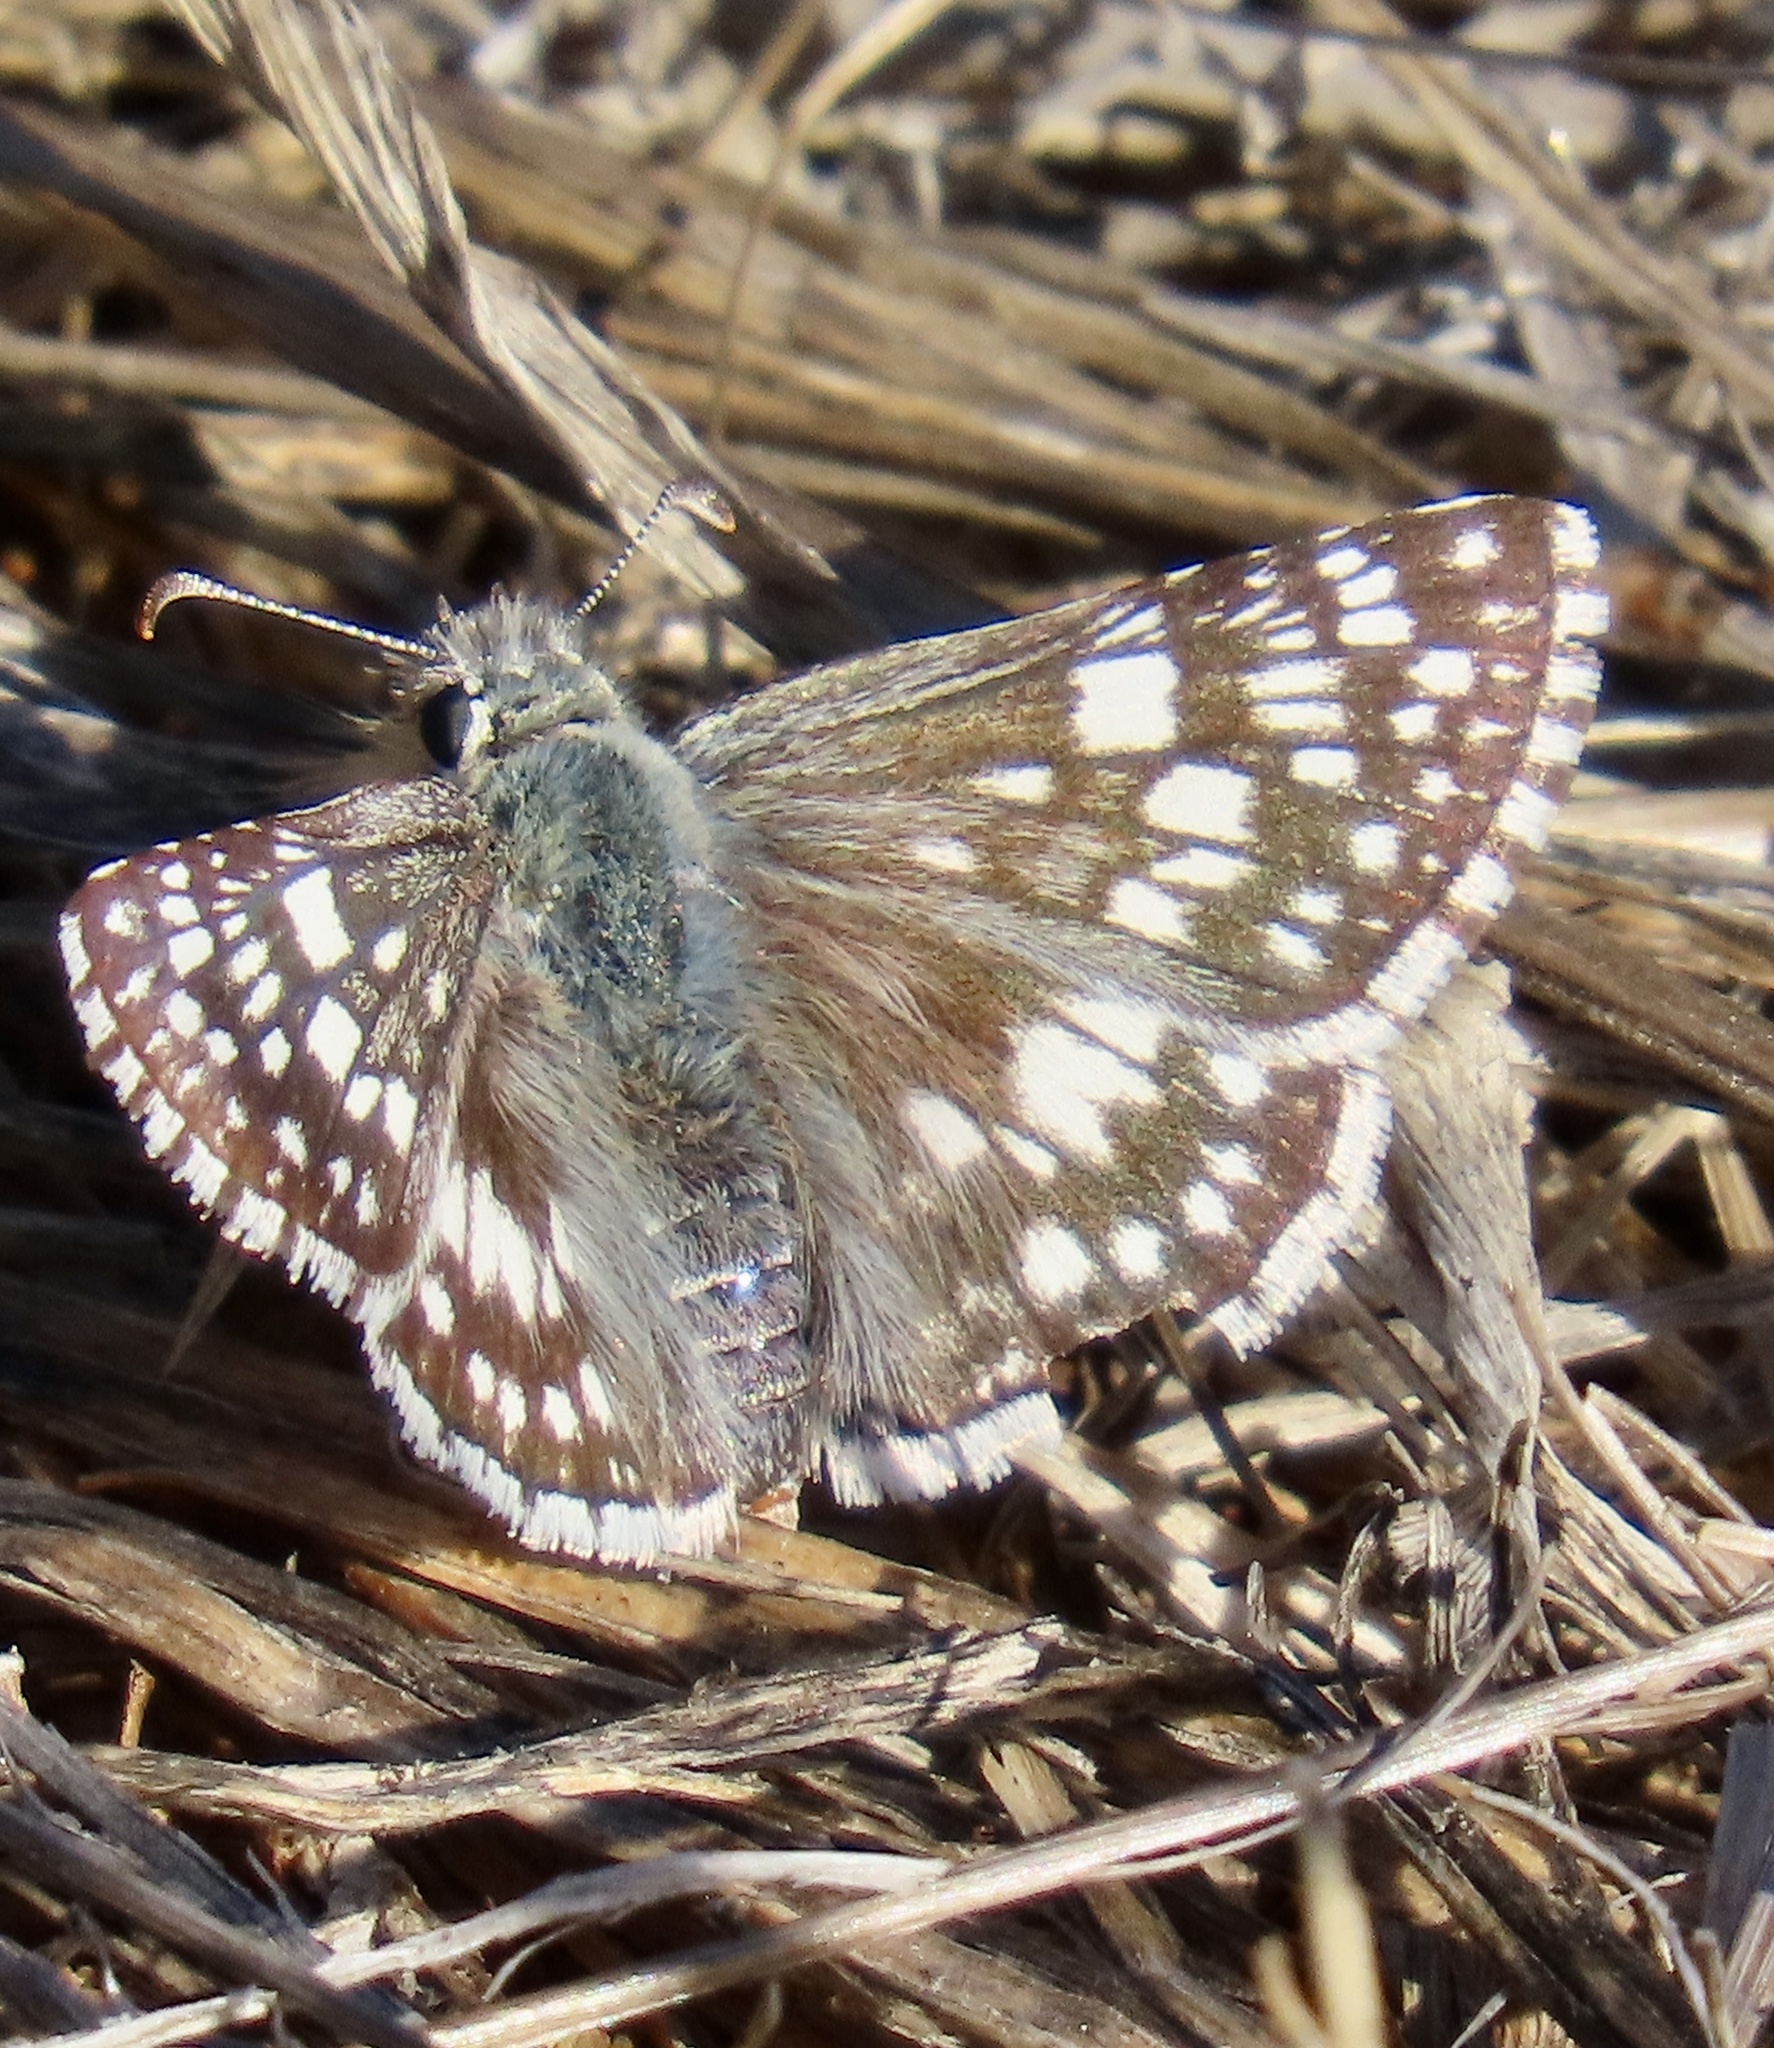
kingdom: Animalia
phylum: Arthropoda
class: Insecta
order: Lepidoptera
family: Hesperiidae
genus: Burnsius
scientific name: Burnsius communis
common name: Common checkered-skipper
